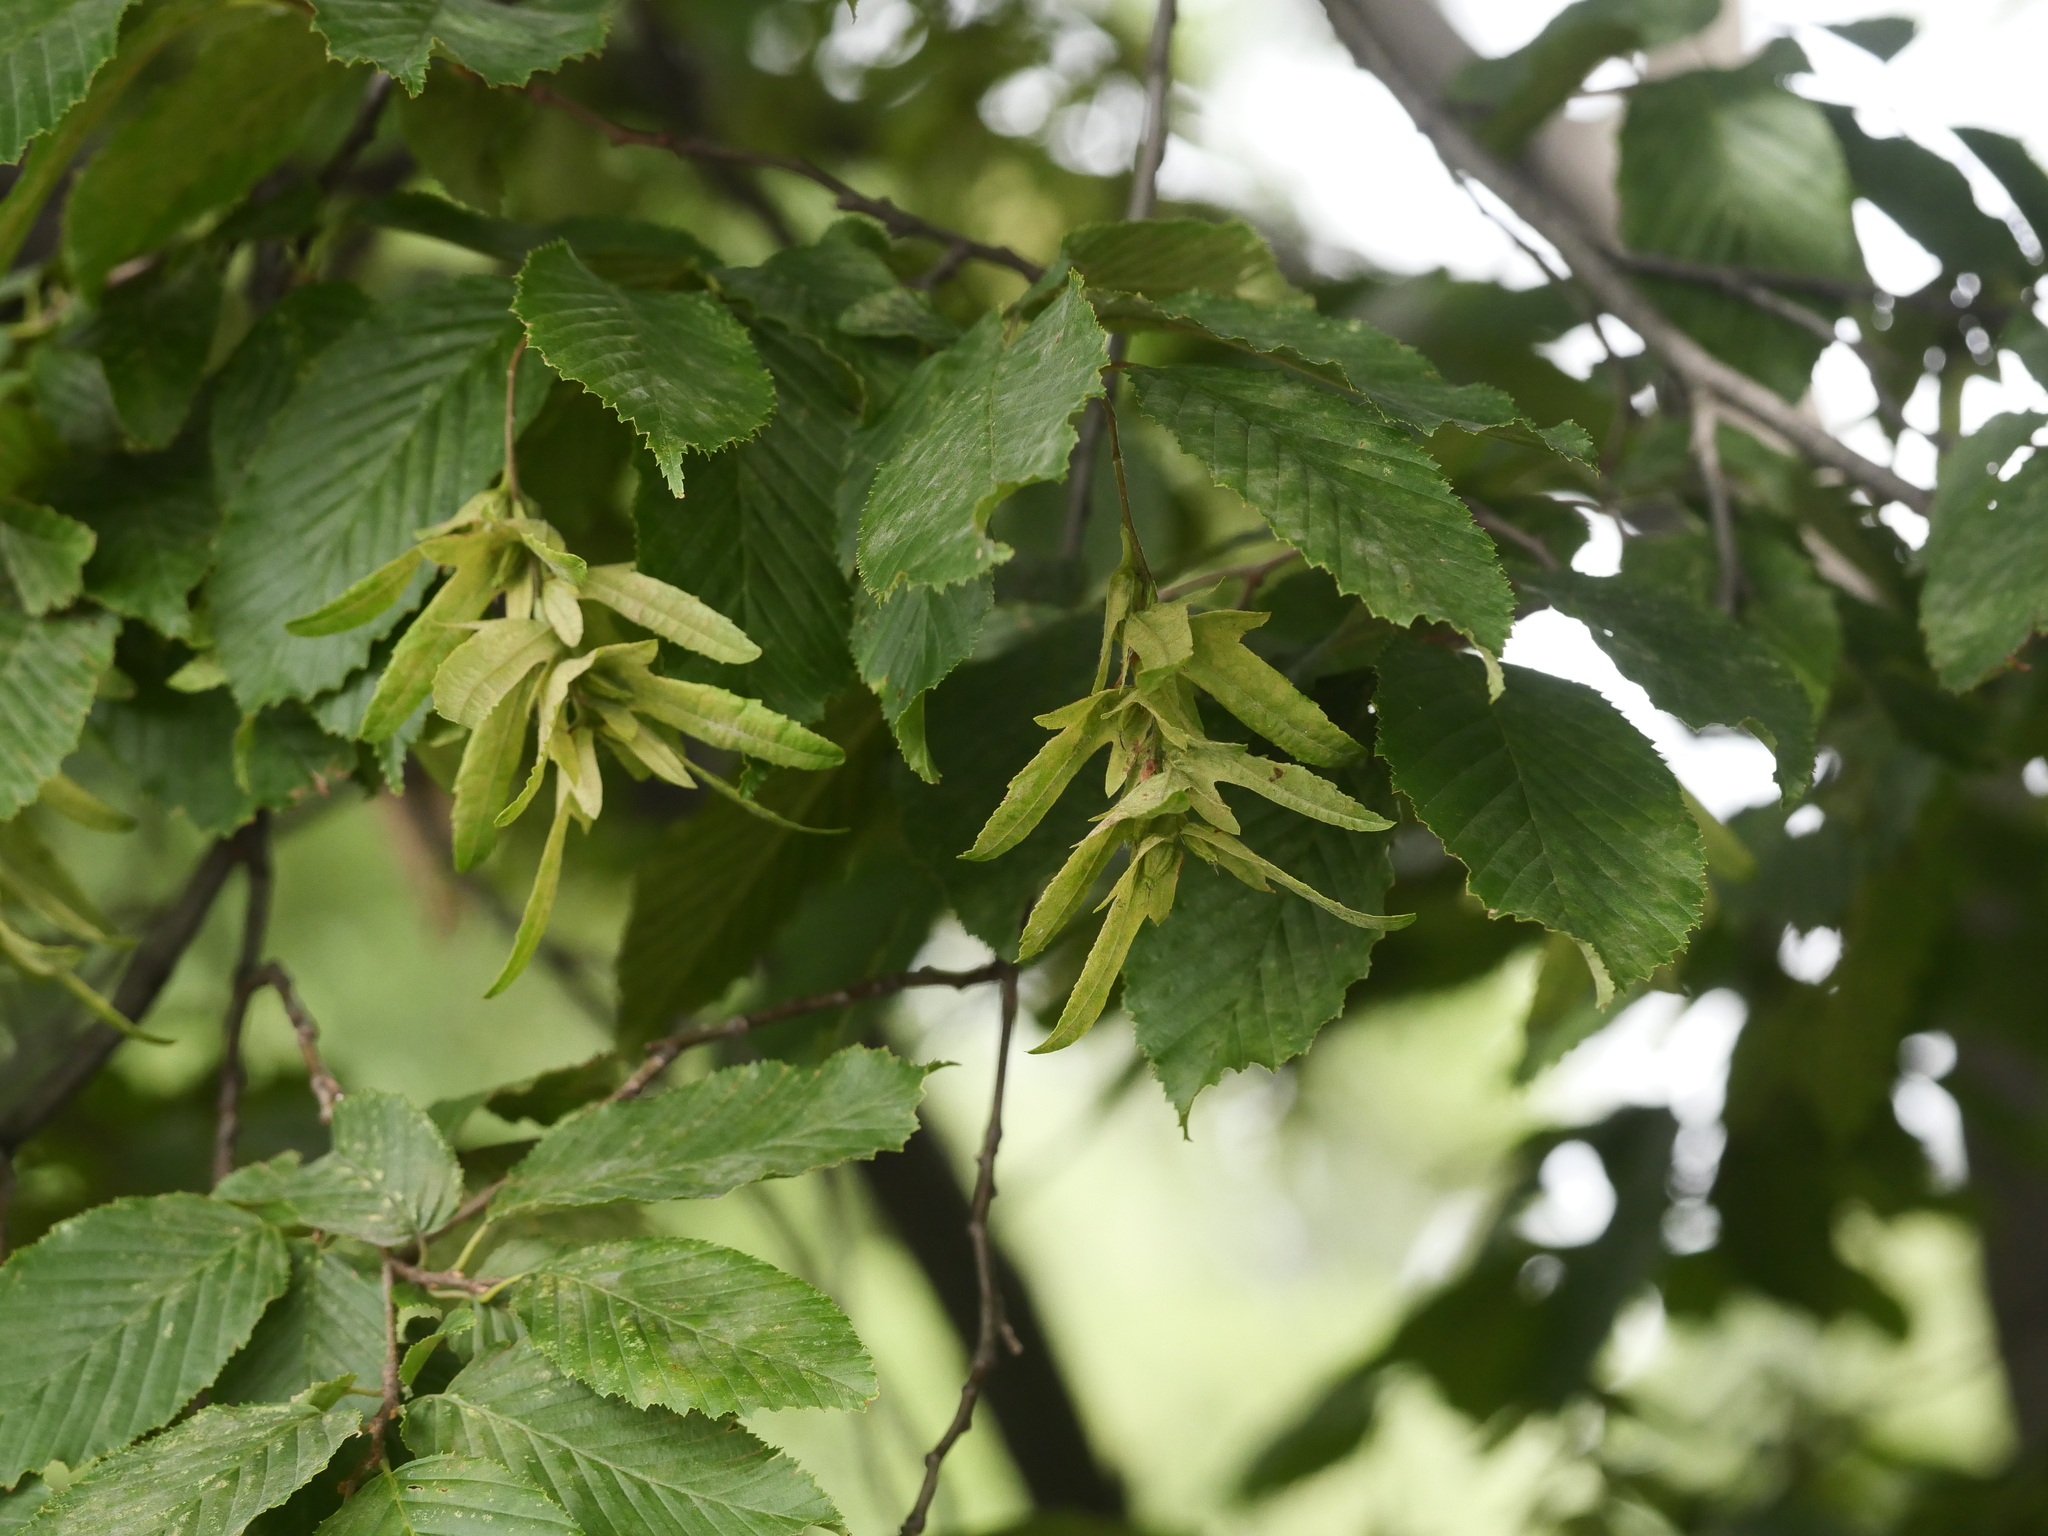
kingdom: Plantae
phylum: Tracheophyta
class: Magnoliopsida
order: Fagales
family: Betulaceae
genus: Carpinus
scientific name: Carpinus betulus
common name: Hornbeam
